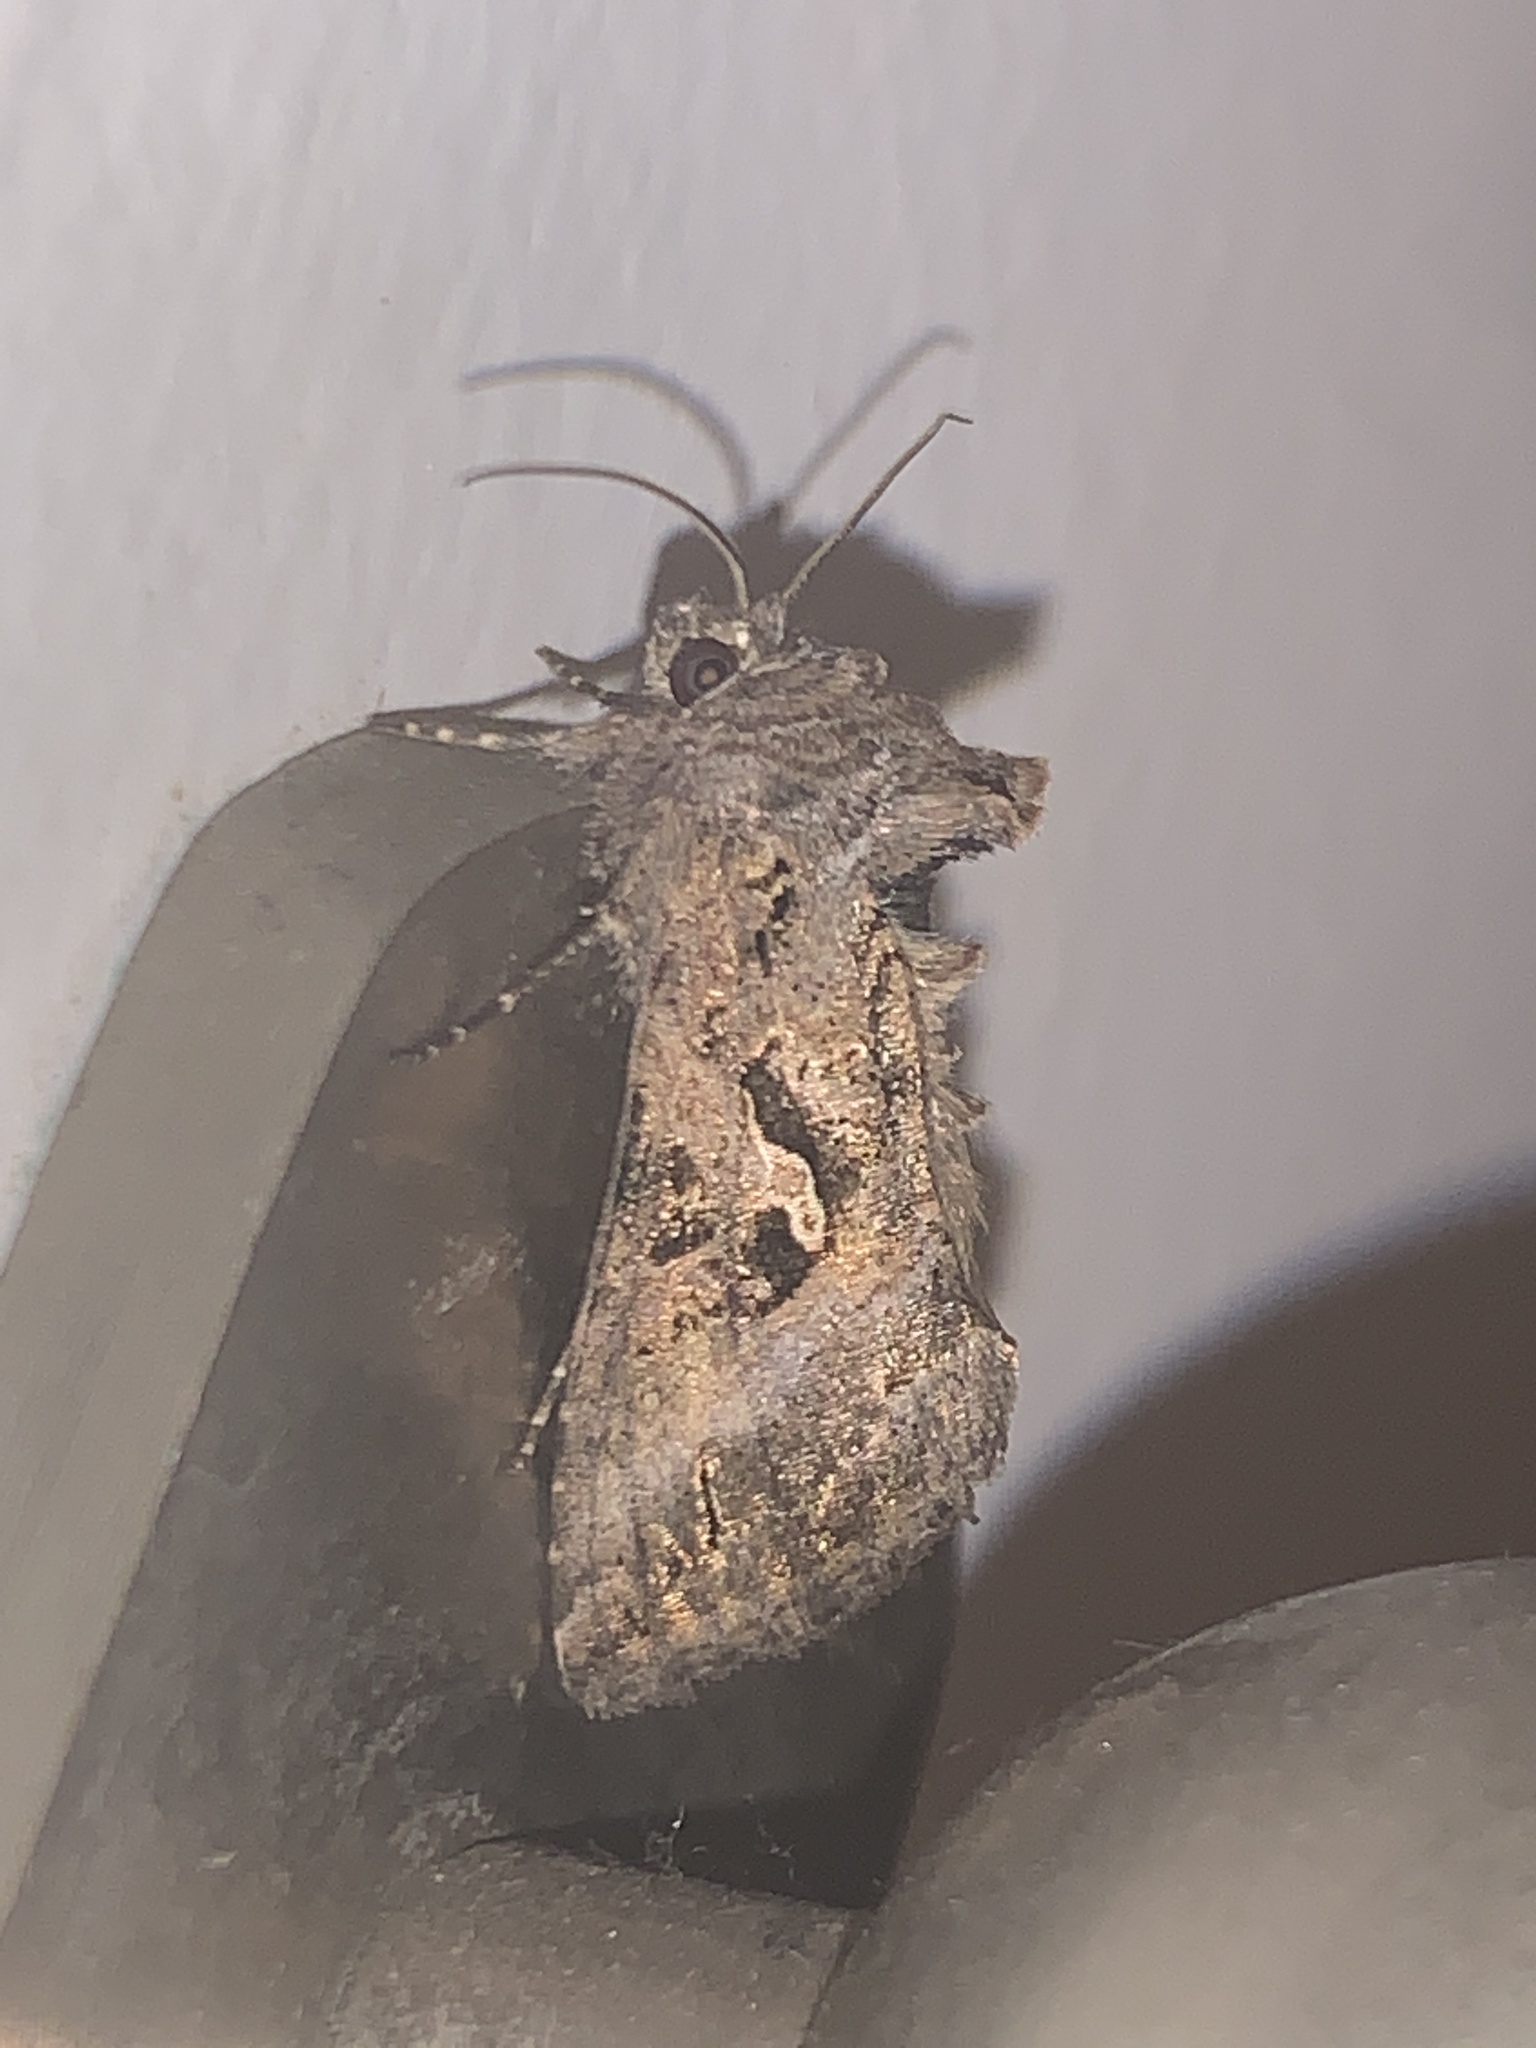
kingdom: Animalia
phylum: Arthropoda
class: Insecta
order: Lepidoptera
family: Noctuidae
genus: Rachiplusia
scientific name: Rachiplusia nu
